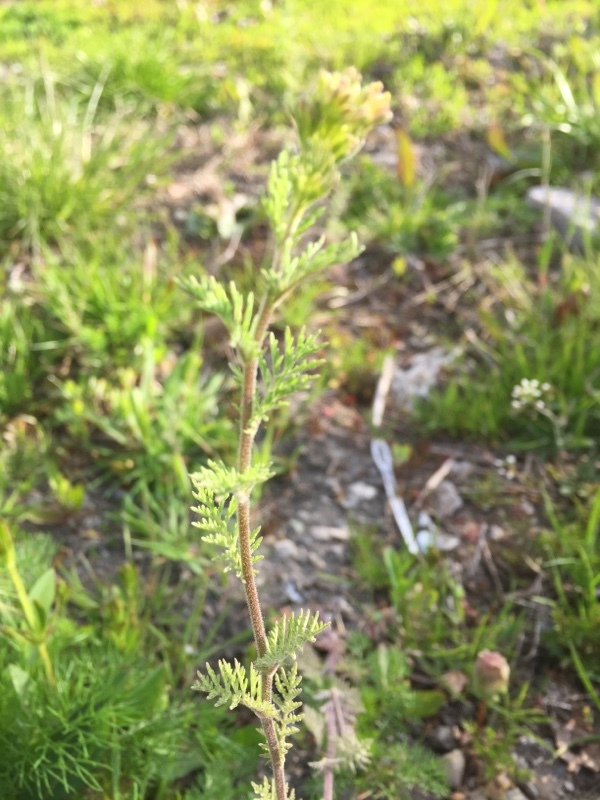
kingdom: Plantae
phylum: Tracheophyta
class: Magnoliopsida
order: Brassicales
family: Brassicaceae
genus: Descurainia
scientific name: Descurainia sophia
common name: Flixweed
